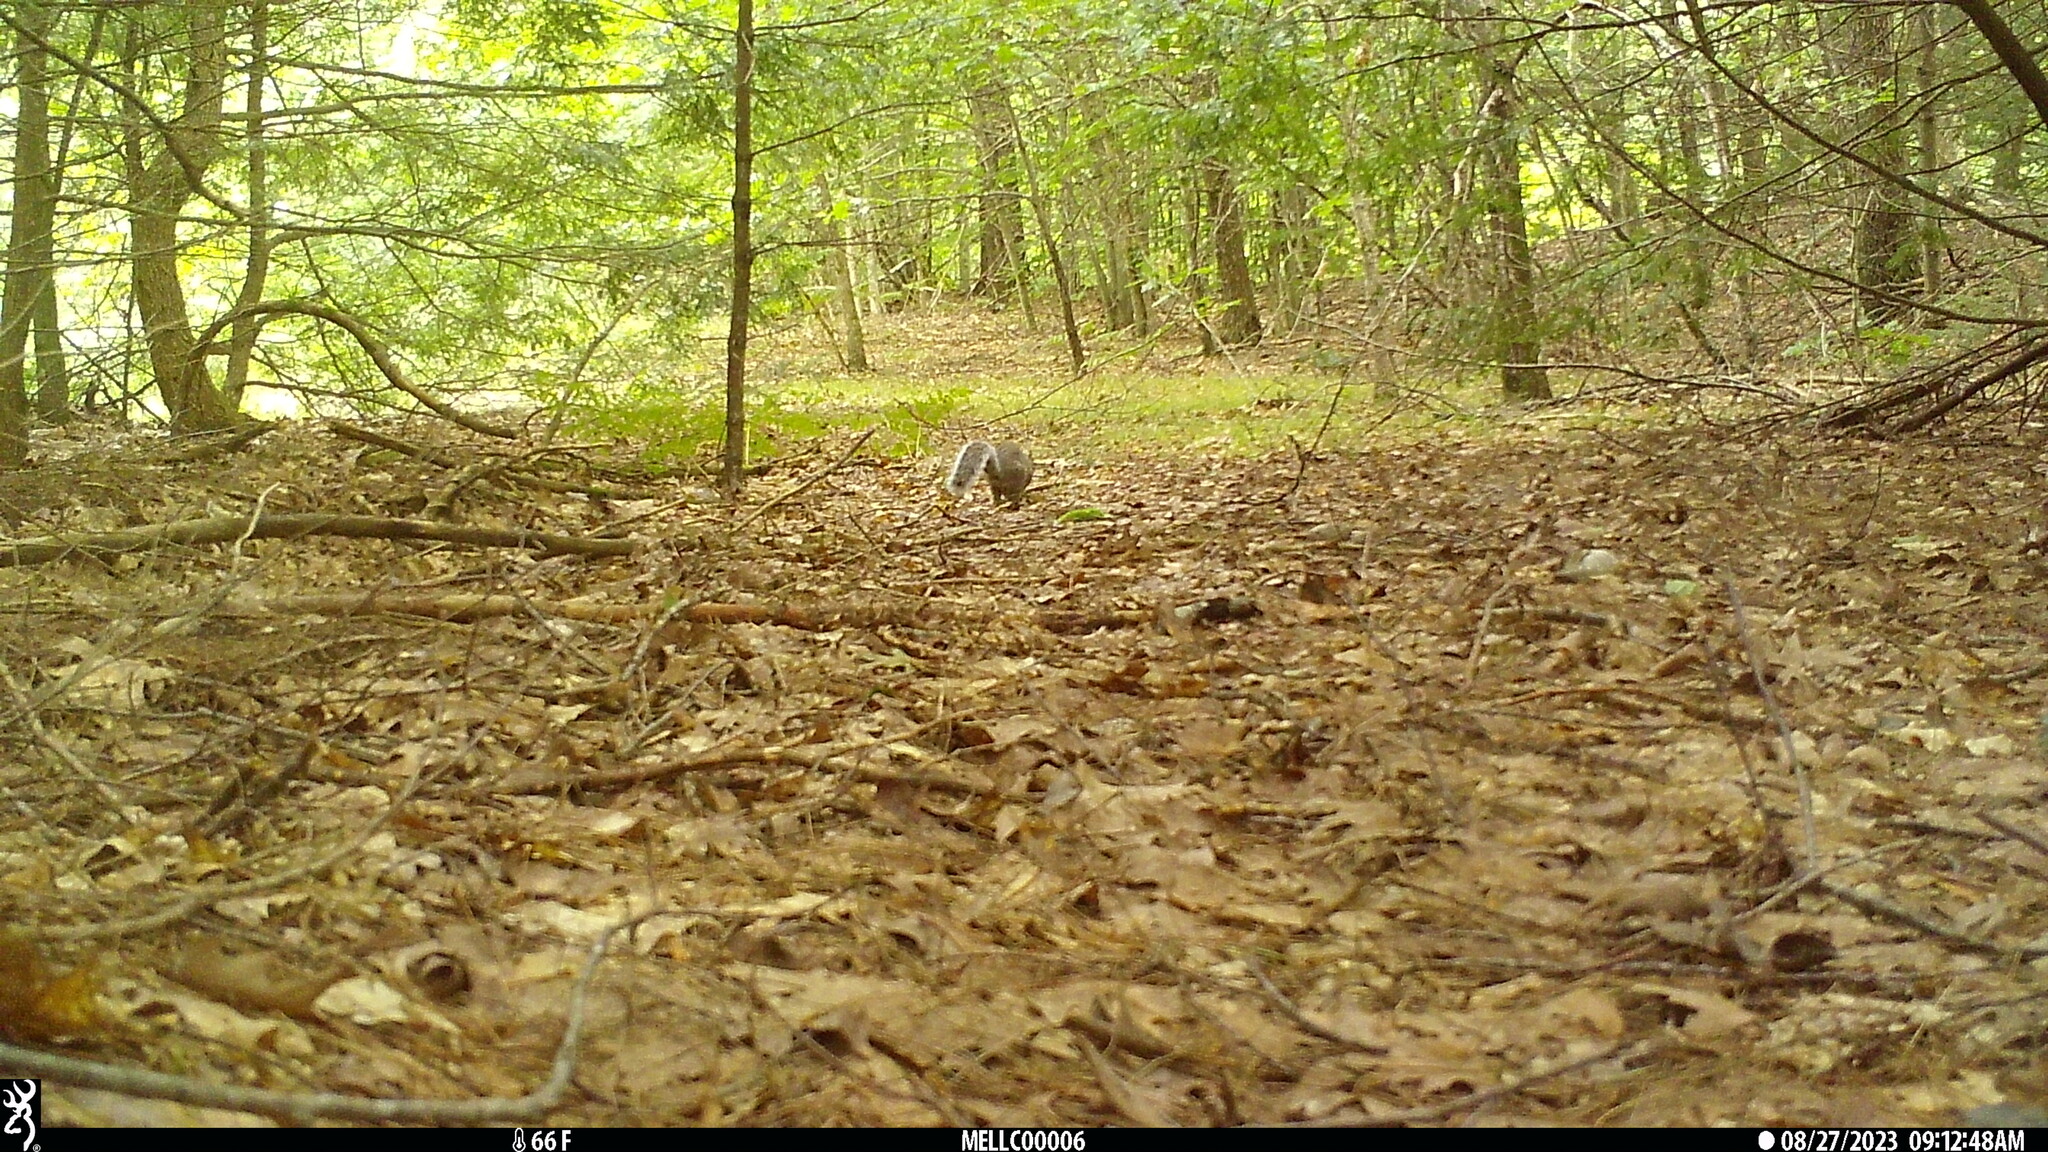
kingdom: Animalia
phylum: Chordata
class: Mammalia
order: Rodentia
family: Sciuridae
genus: Sciurus
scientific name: Sciurus carolinensis
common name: Eastern gray squirrel
